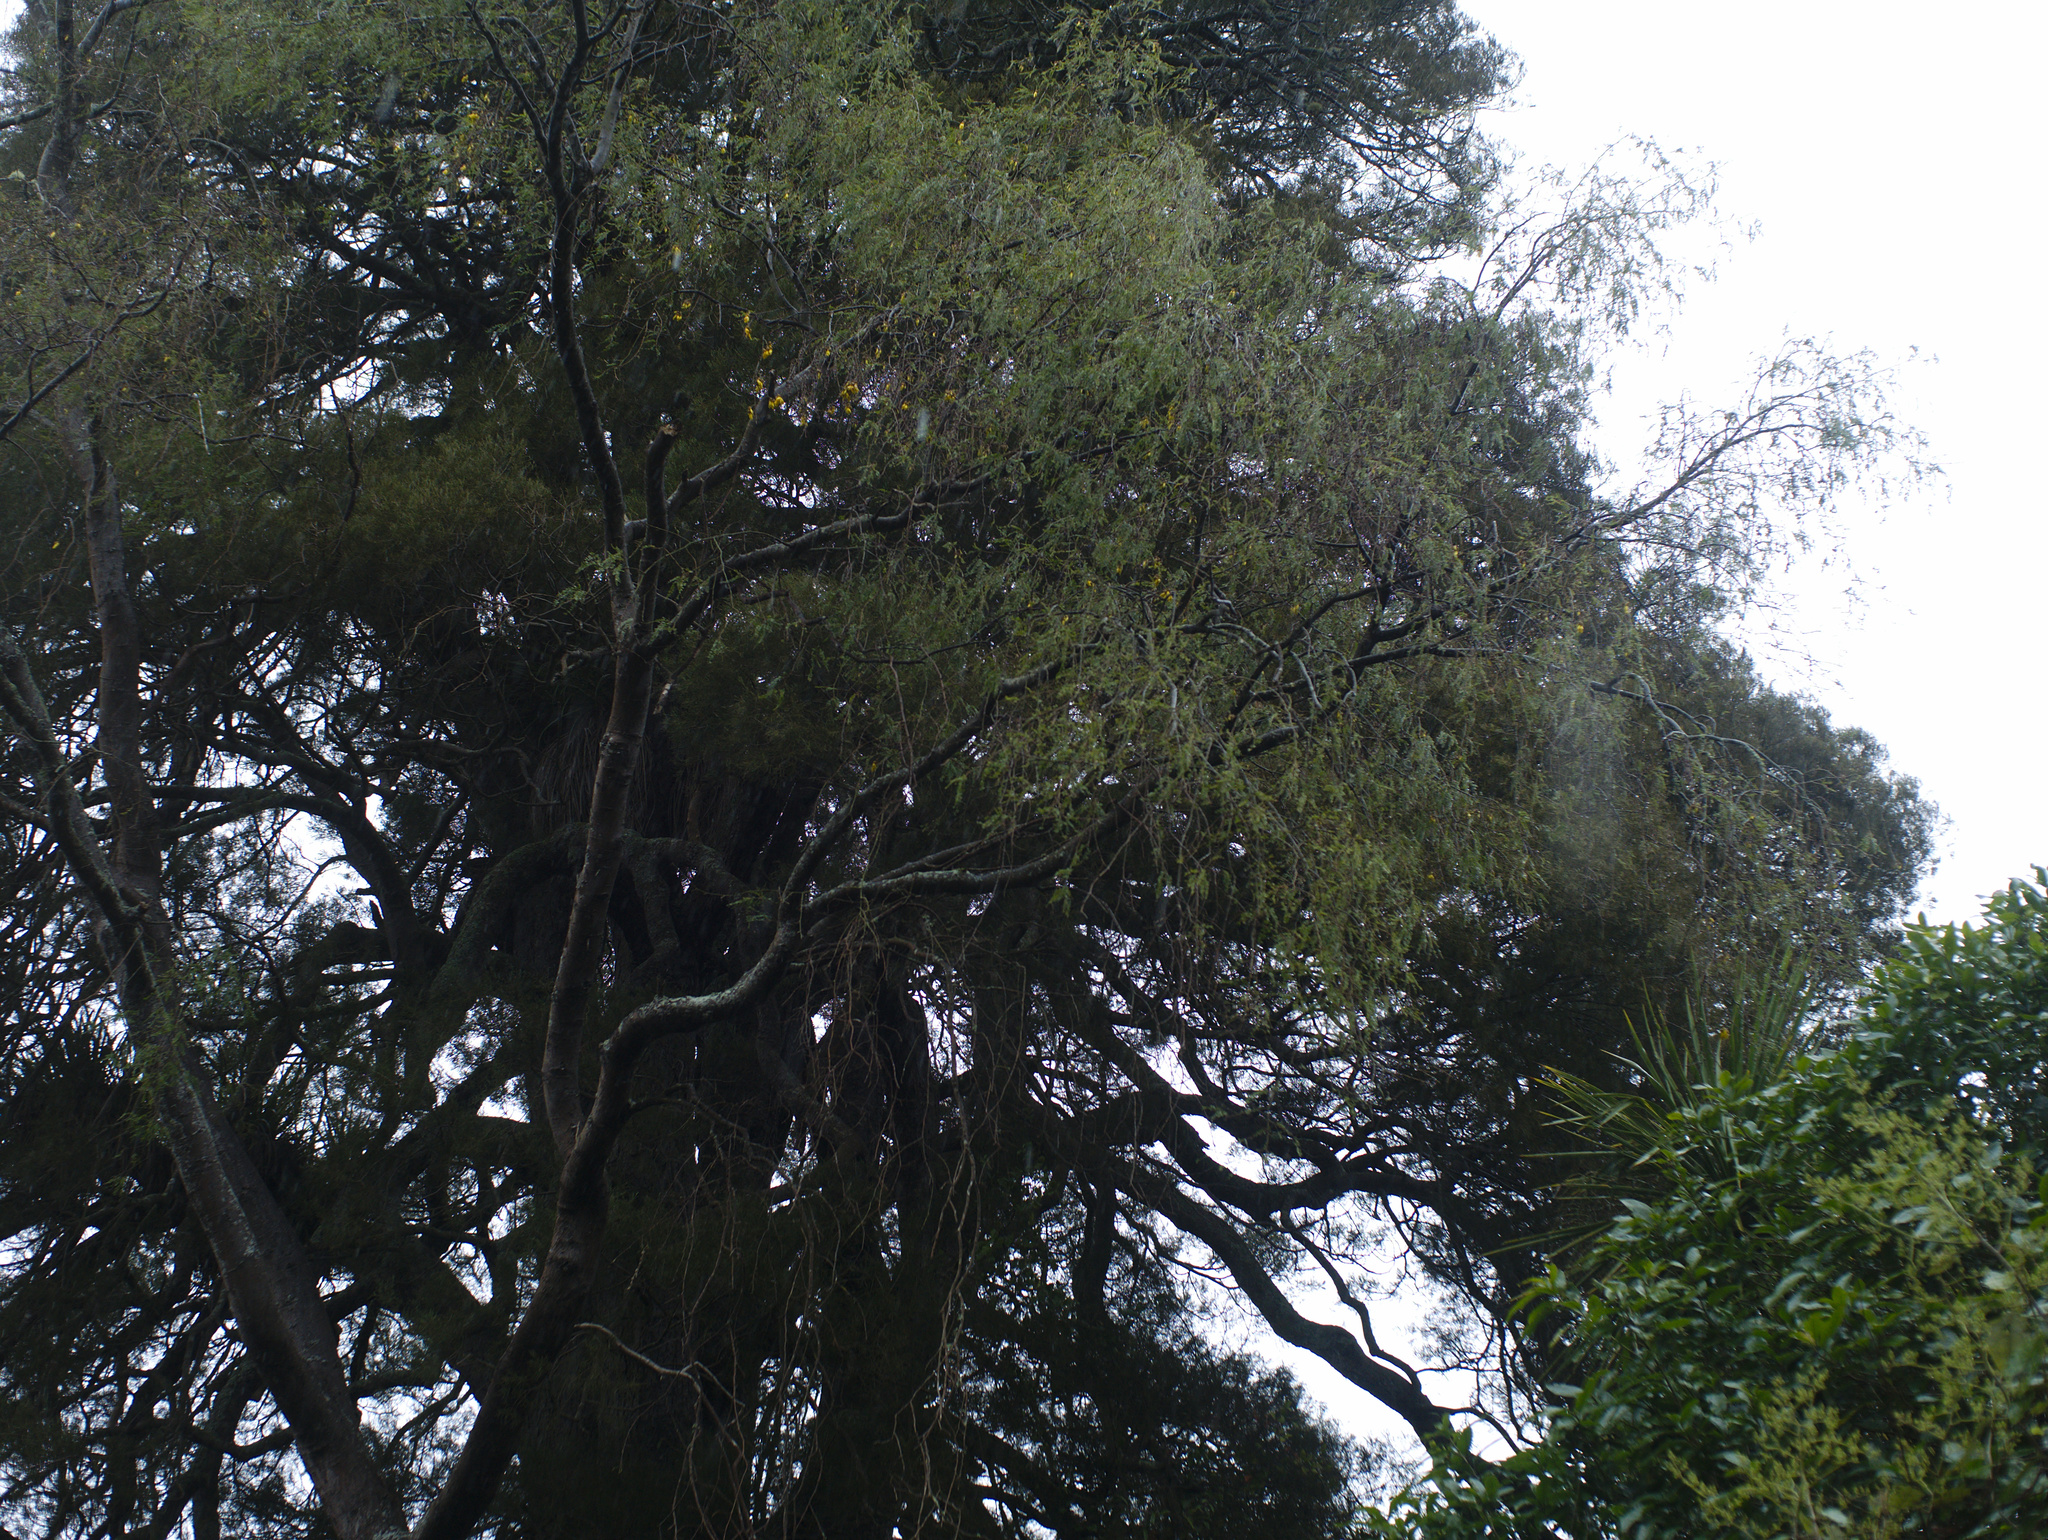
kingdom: Plantae
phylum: Tracheophyta
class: Magnoliopsida
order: Fabales
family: Fabaceae
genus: Sophora
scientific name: Sophora godleyi
